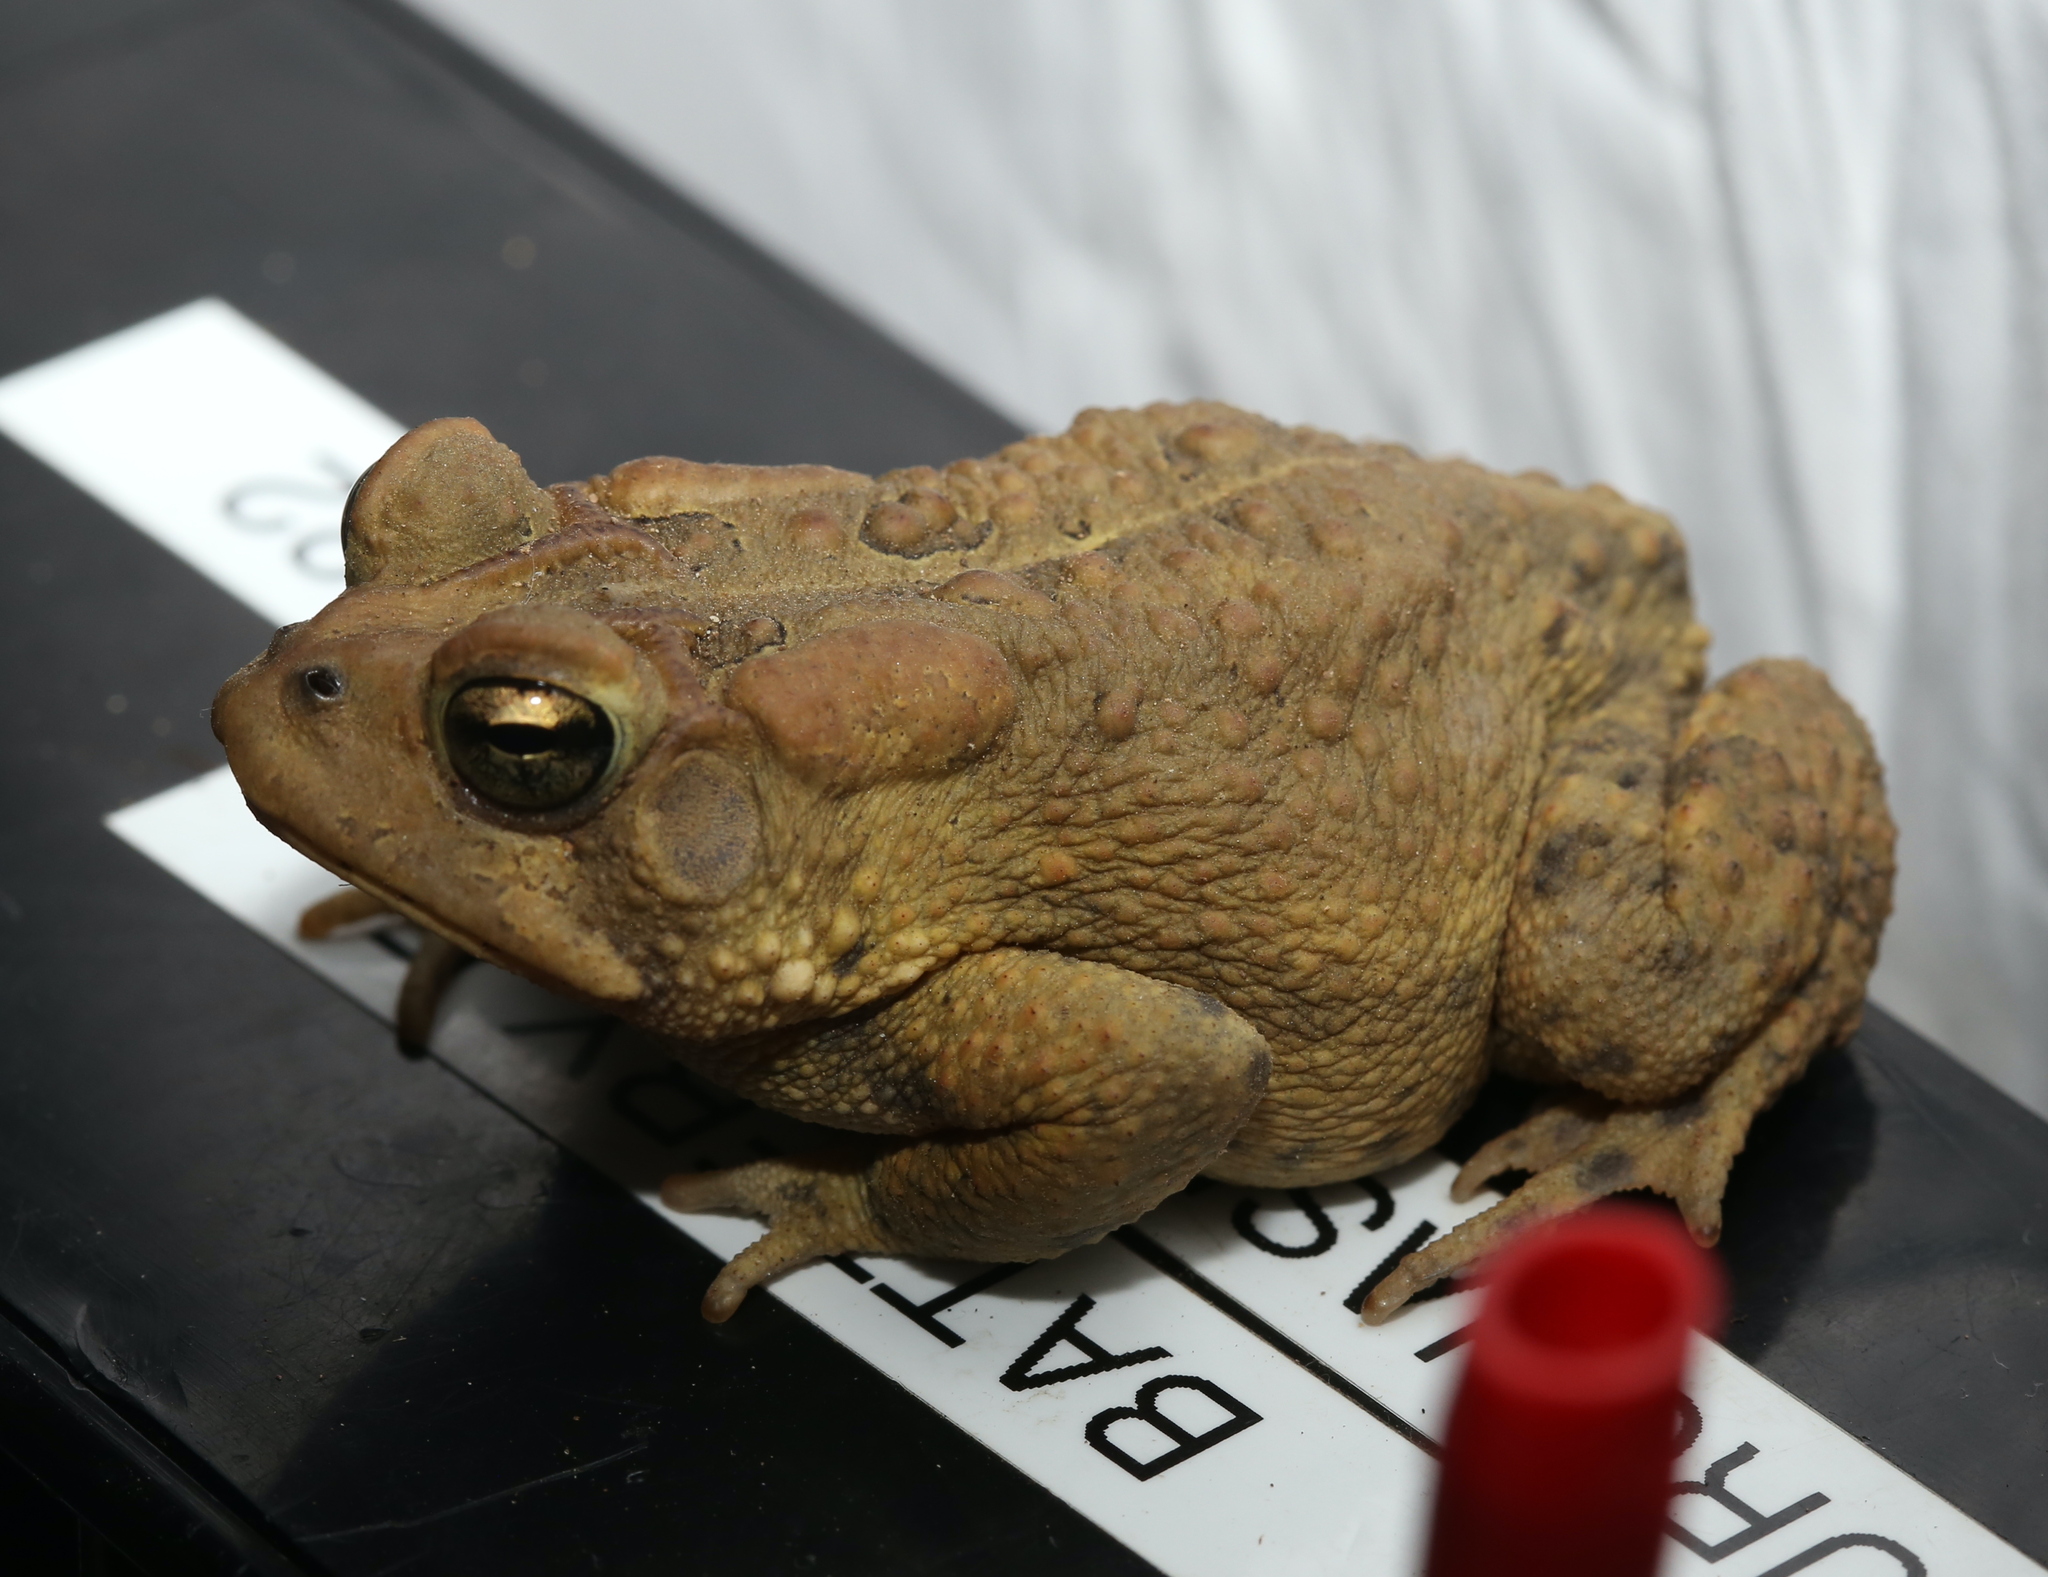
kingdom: Animalia
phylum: Chordata
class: Amphibia
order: Anura
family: Bufonidae
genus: Anaxyrus
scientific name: Anaxyrus americanus
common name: American toad
